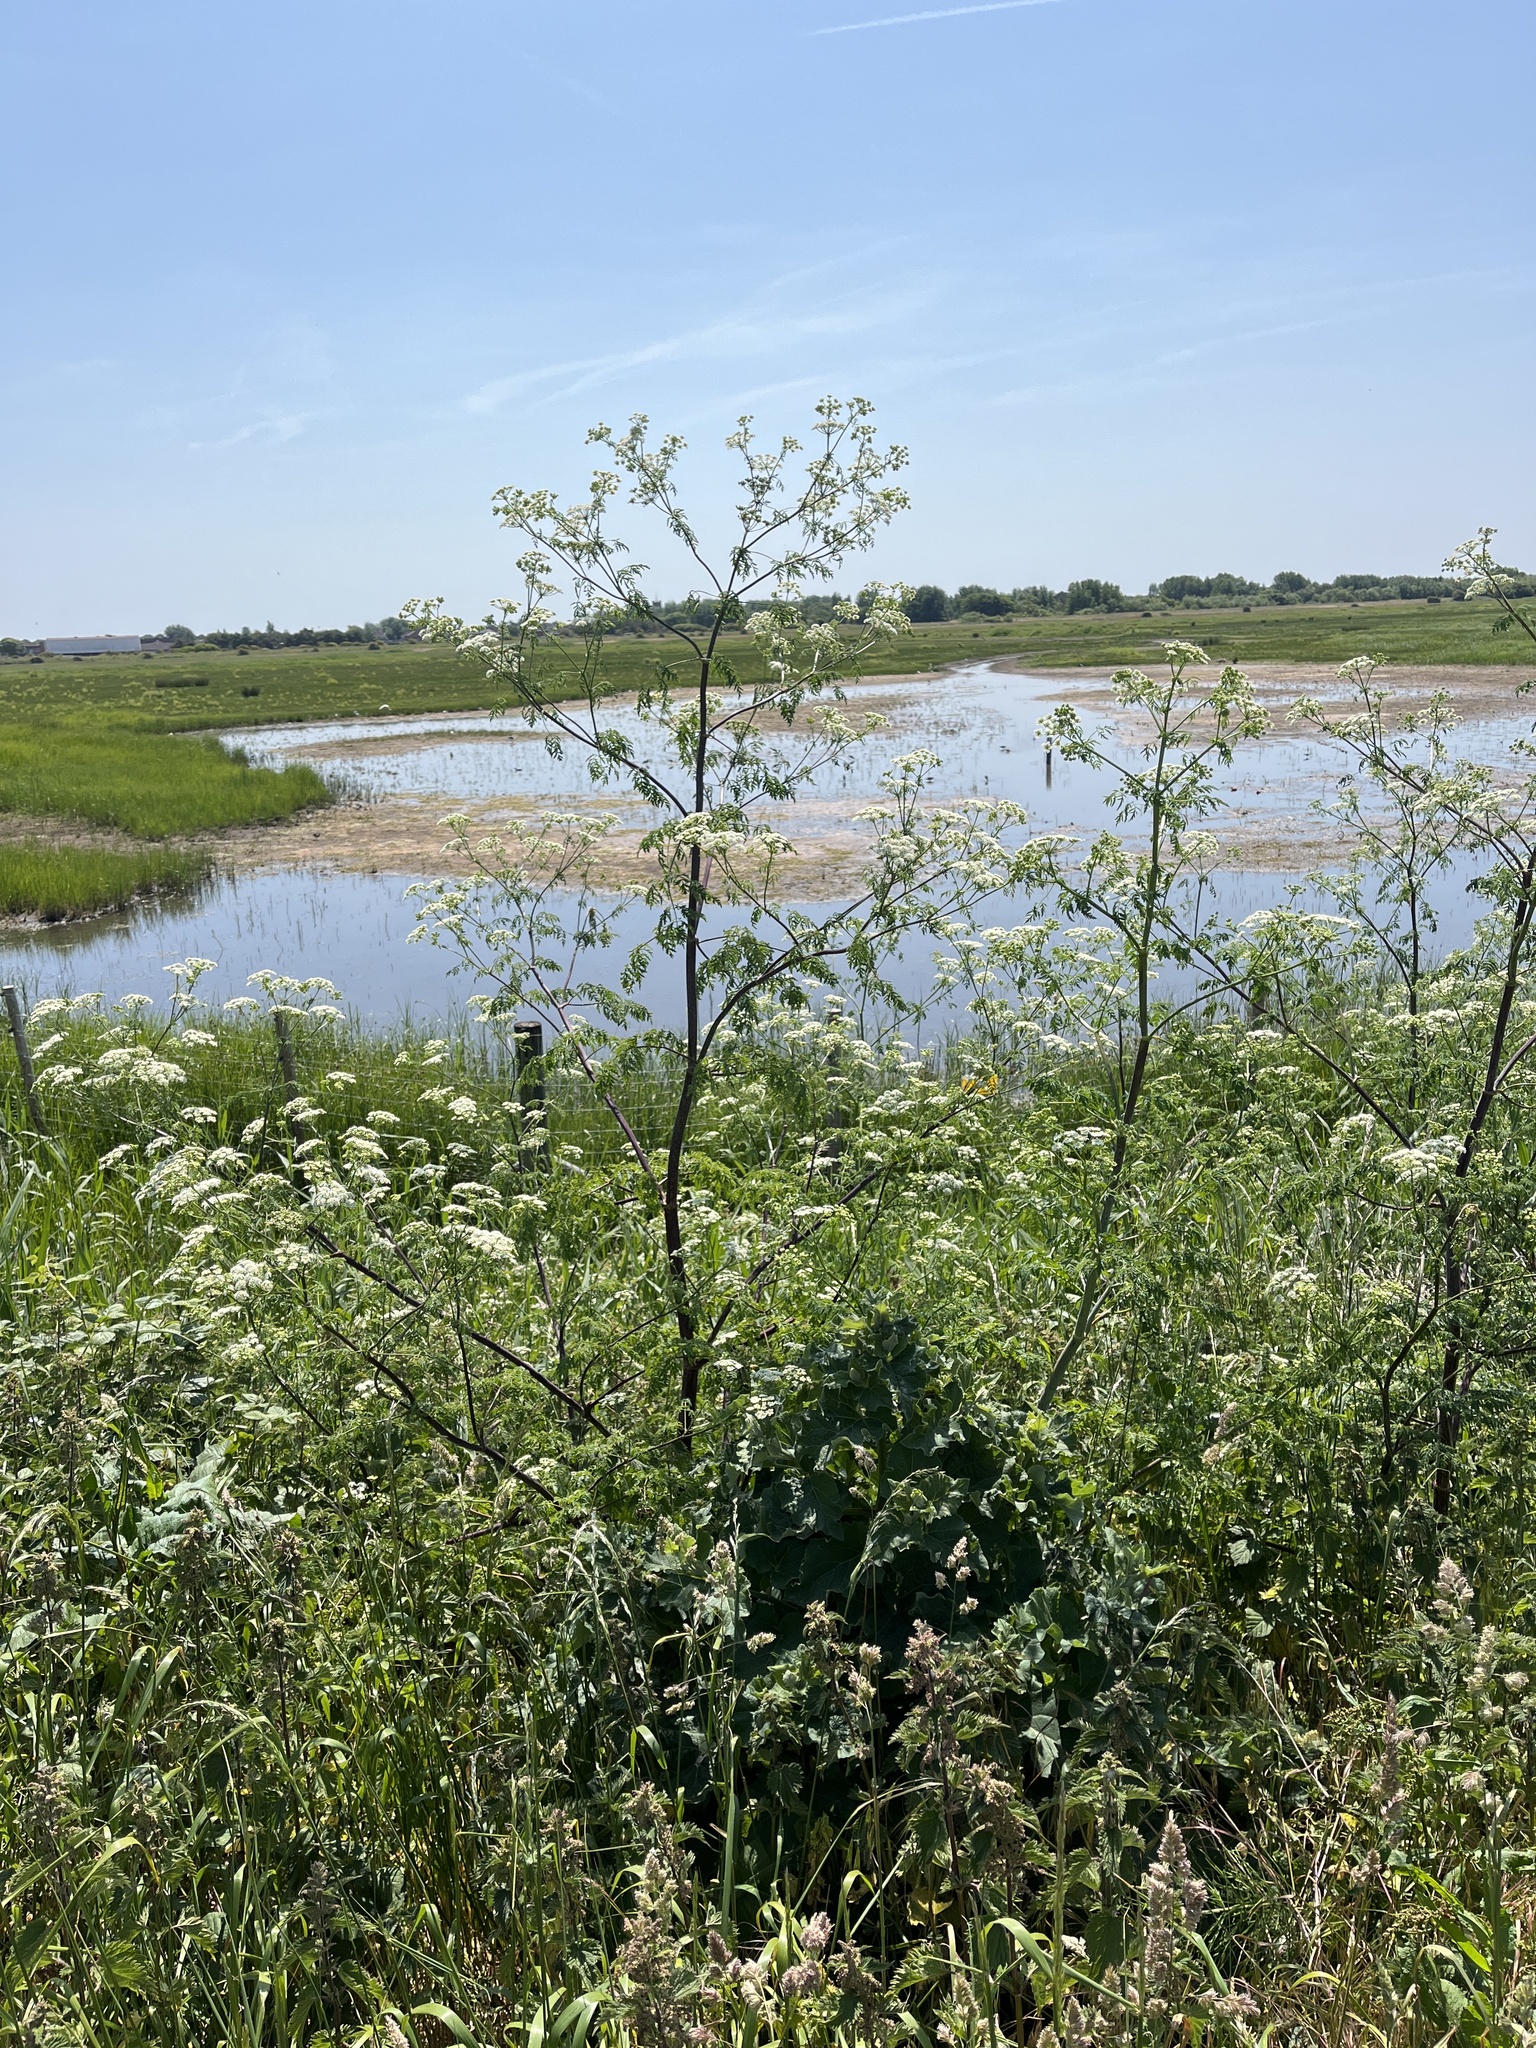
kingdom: Plantae
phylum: Tracheophyta
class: Magnoliopsida
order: Apiales
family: Apiaceae
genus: Conium
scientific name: Conium maculatum
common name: Hemlock
